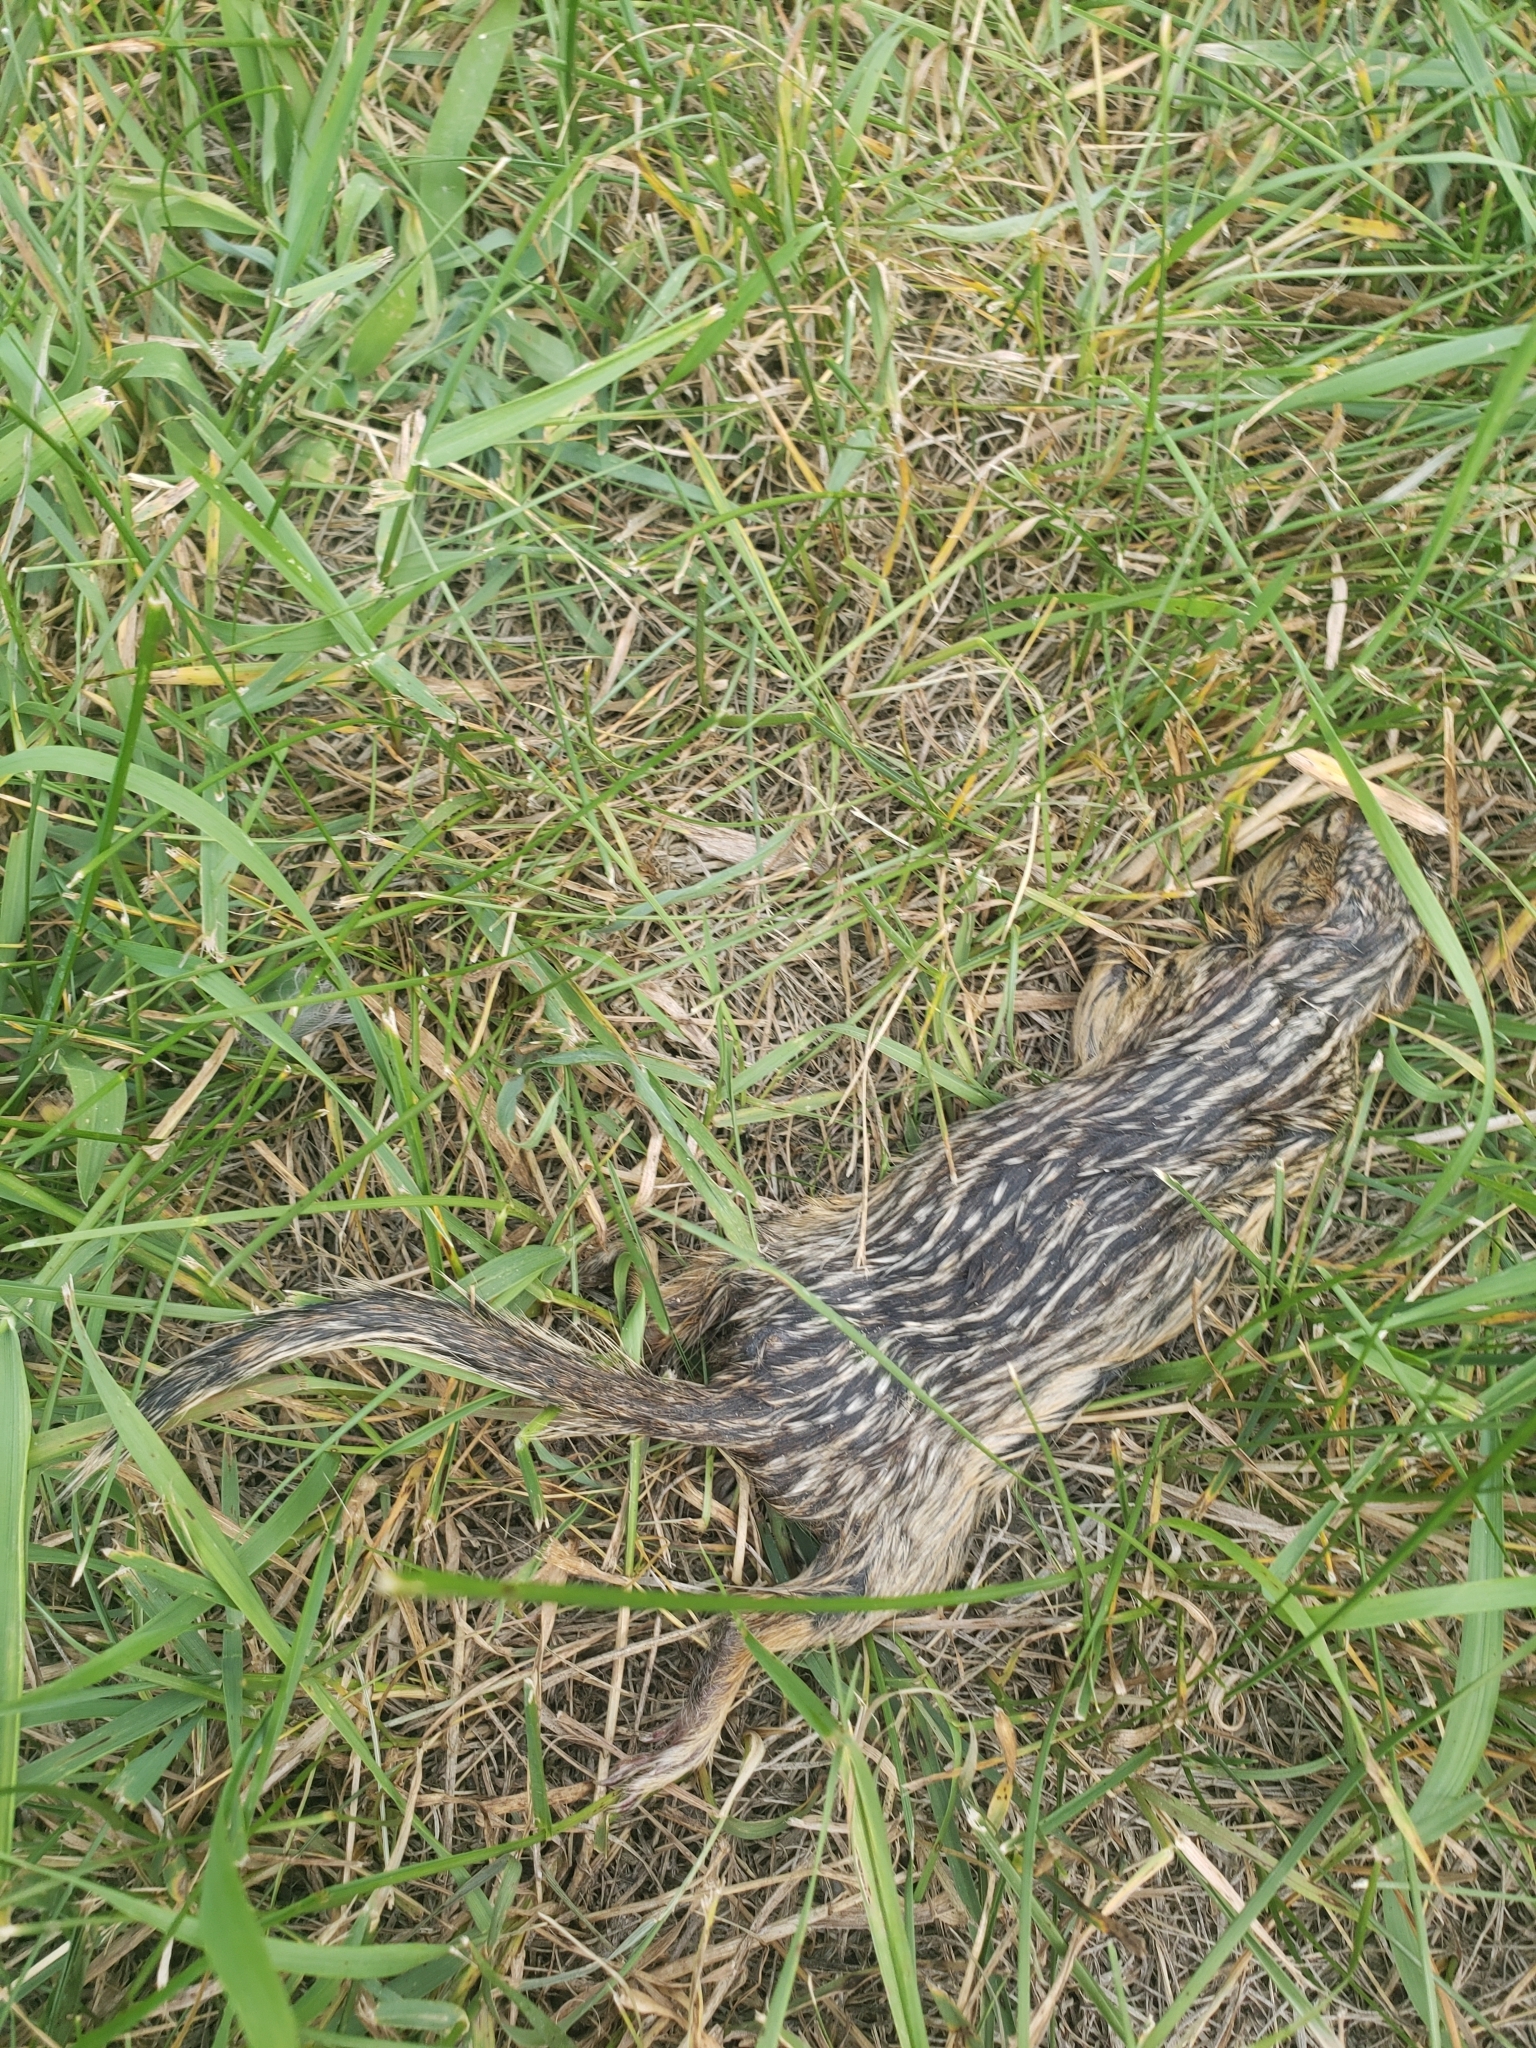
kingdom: Animalia
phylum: Chordata
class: Mammalia
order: Rodentia
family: Sciuridae
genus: Ictidomys
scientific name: Ictidomys tridecemlineatus
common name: Thirteen-lined ground squirrel
